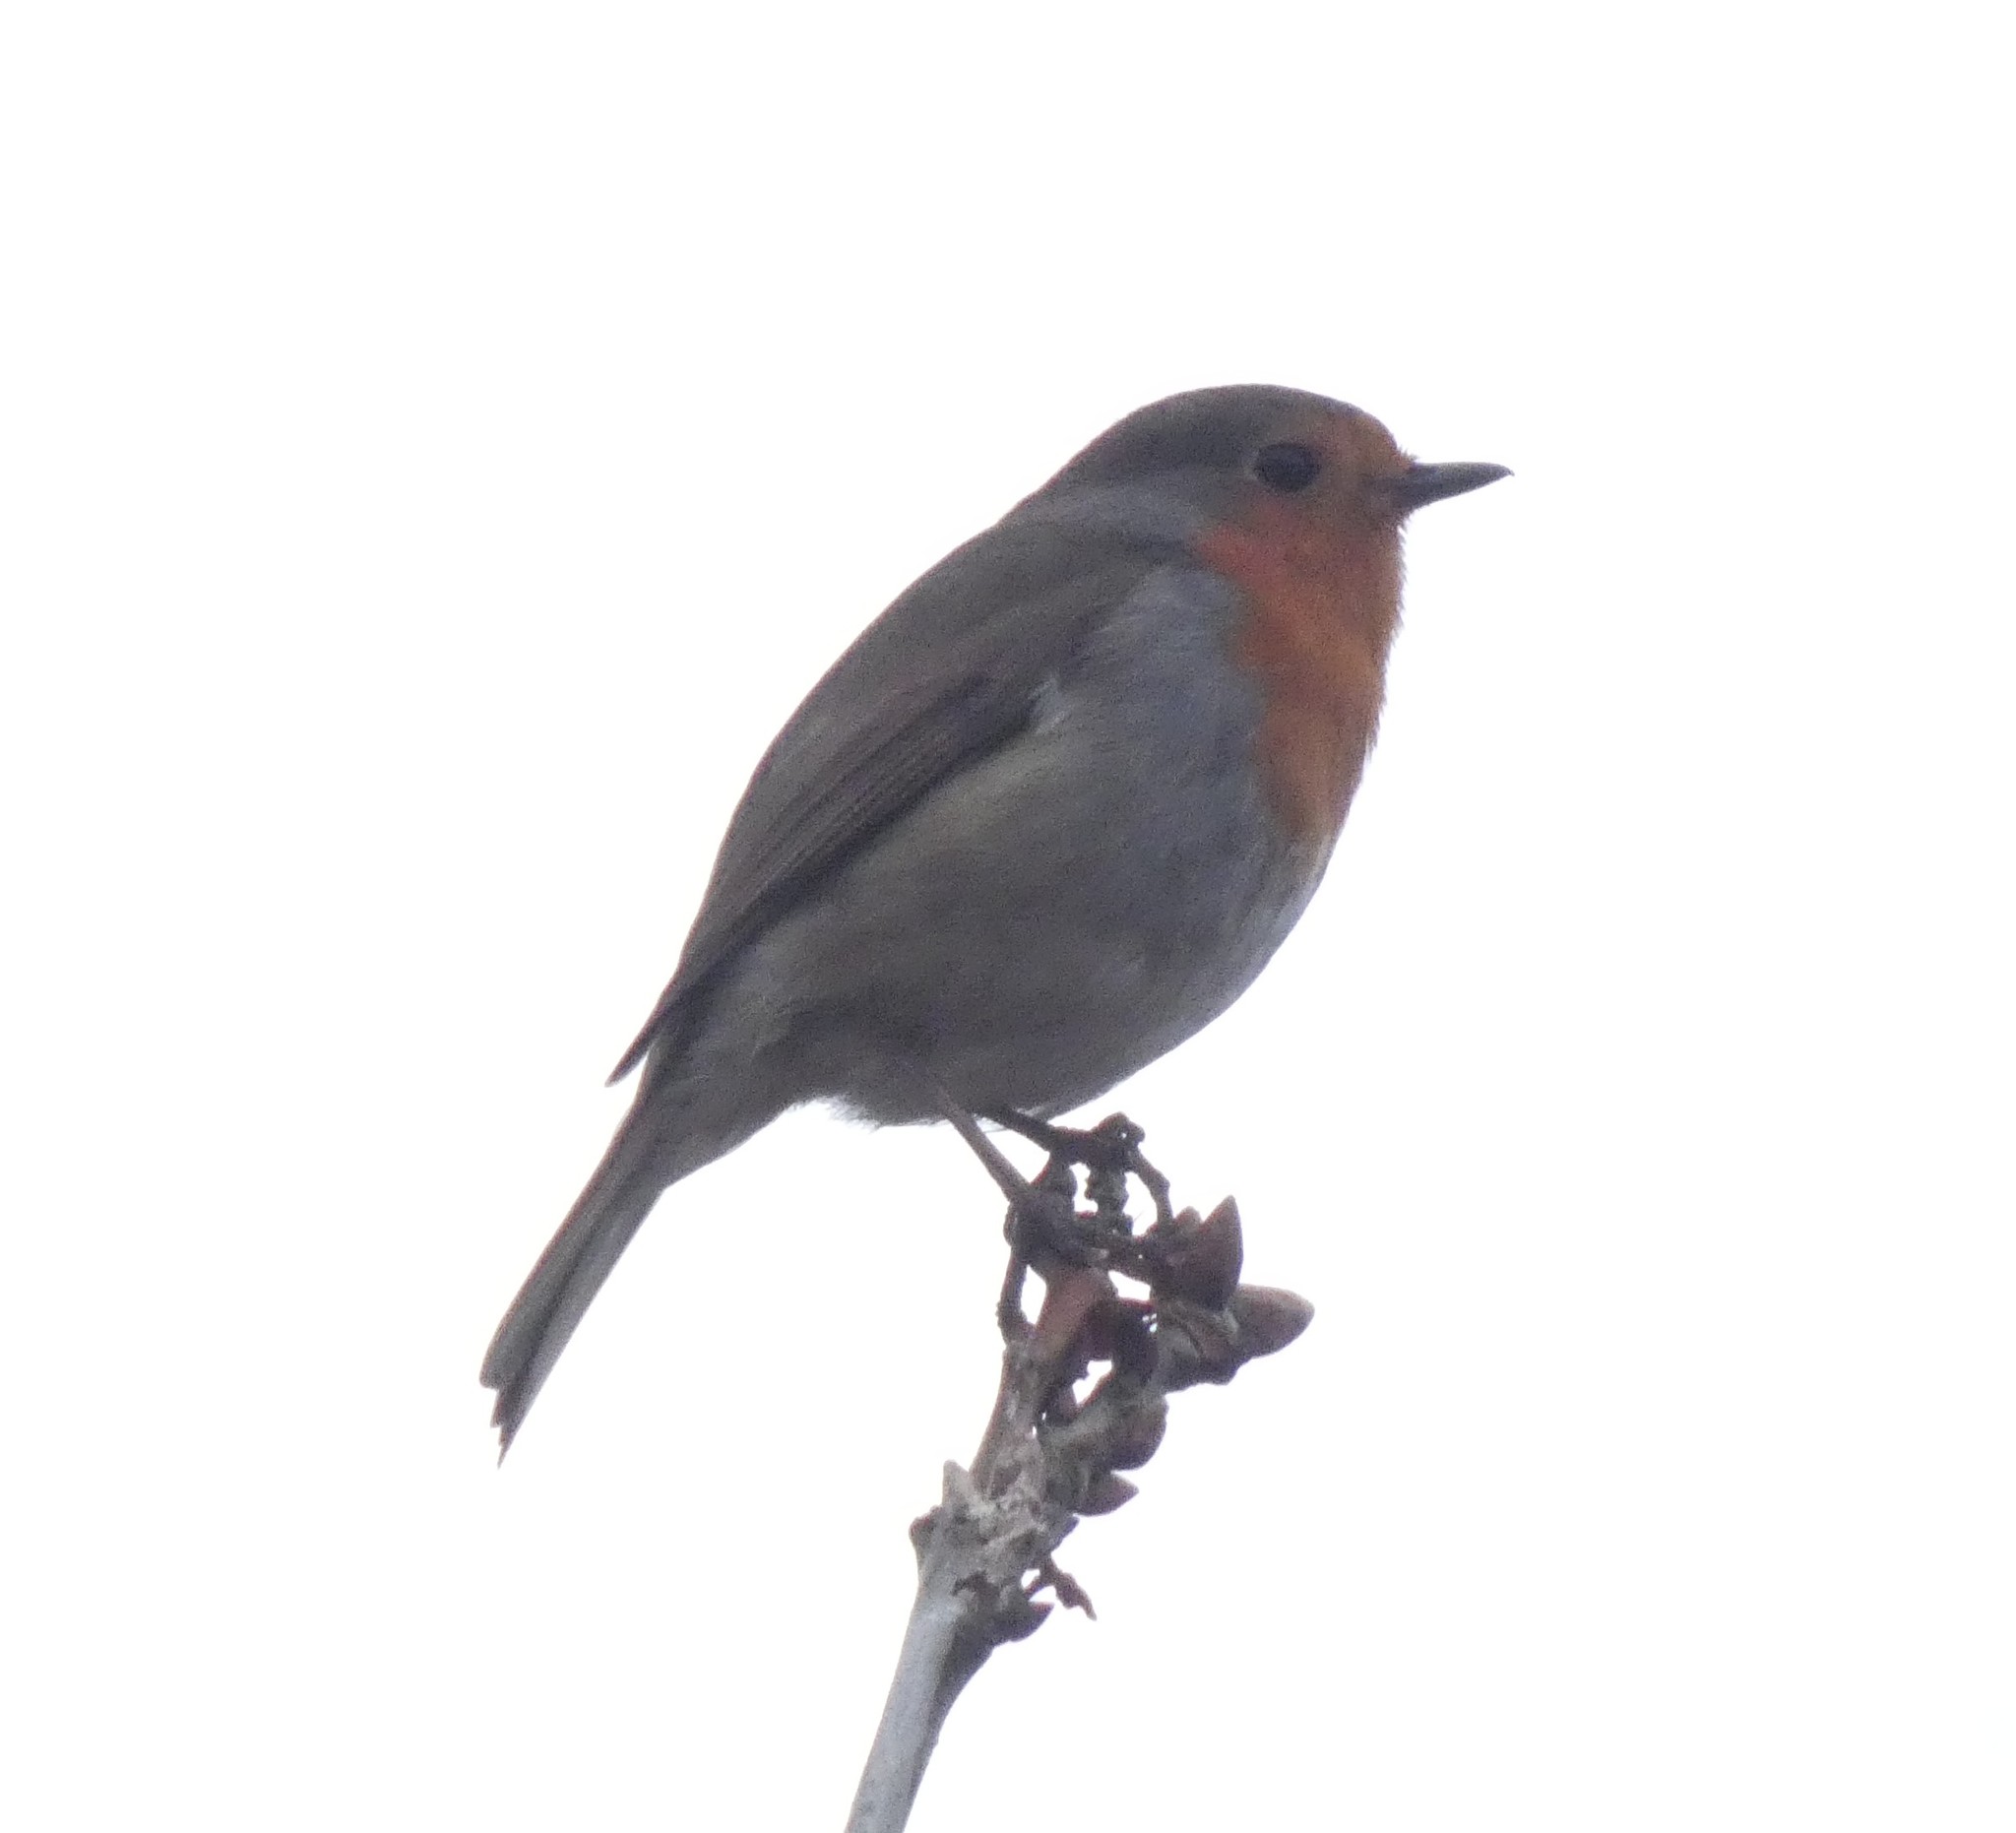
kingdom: Animalia
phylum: Chordata
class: Aves
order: Passeriformes
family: Muscicapidae
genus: Erithacus
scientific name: Erithacus rubecula
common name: European robin
